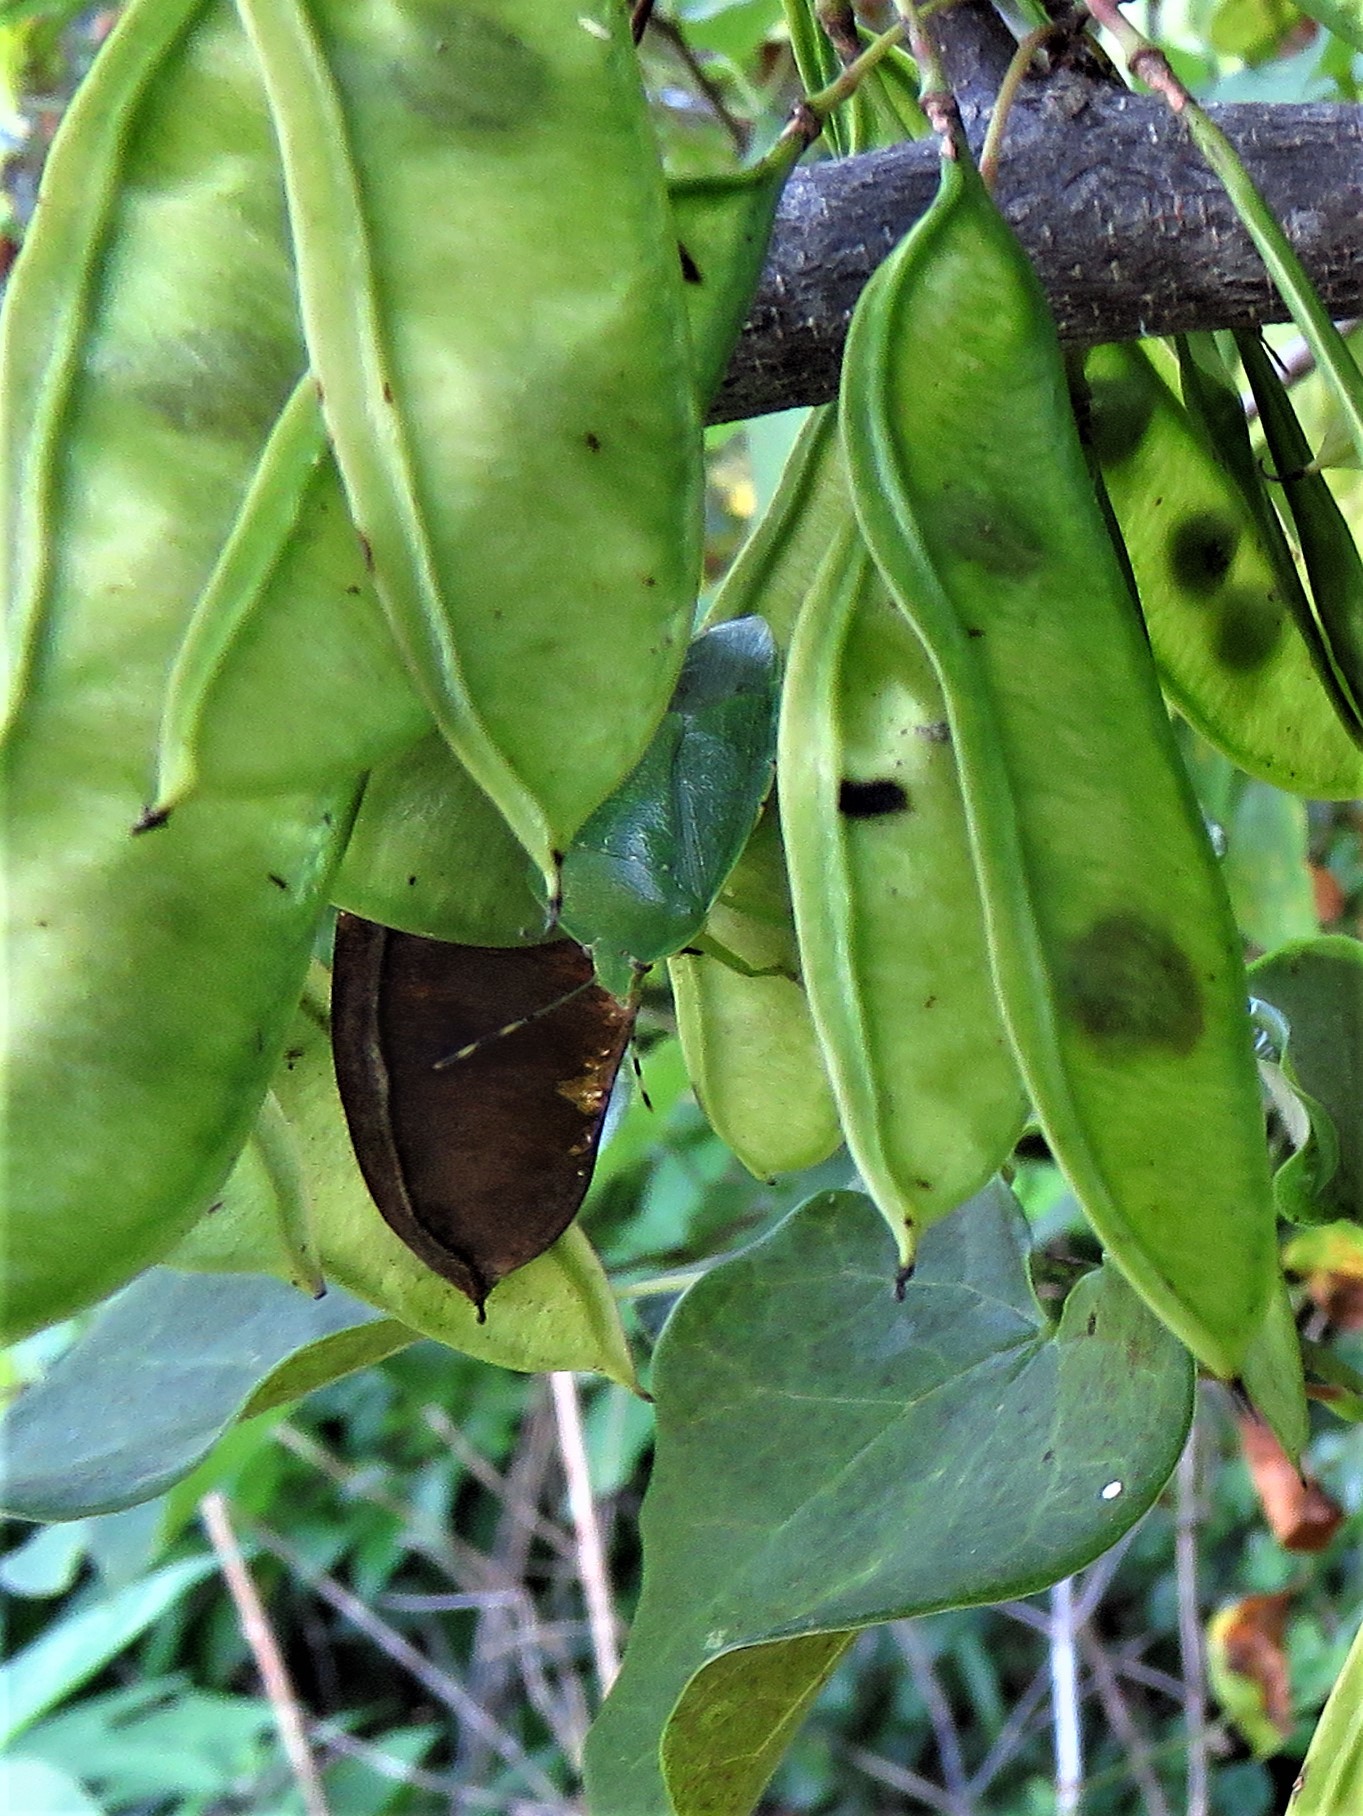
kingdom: Animalia
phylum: Arthropoda
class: Insecta
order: Hemiptera
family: Pentatomidae
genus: Chinavia
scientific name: Chinavia hilaris
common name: Green stink bug
